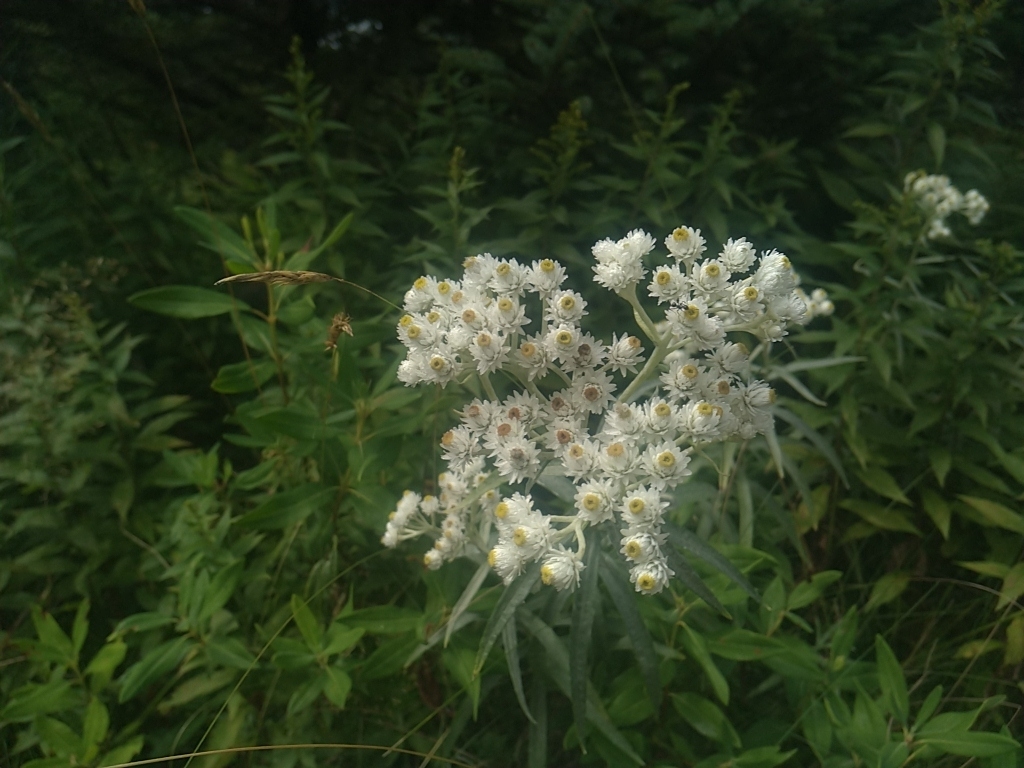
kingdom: Plantae
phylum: Tracheophyta
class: Magnoliopsida
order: Asterales
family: Asteraceae
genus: Anaphalis
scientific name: Anaphalis margaritacea
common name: Pearly everlasting
